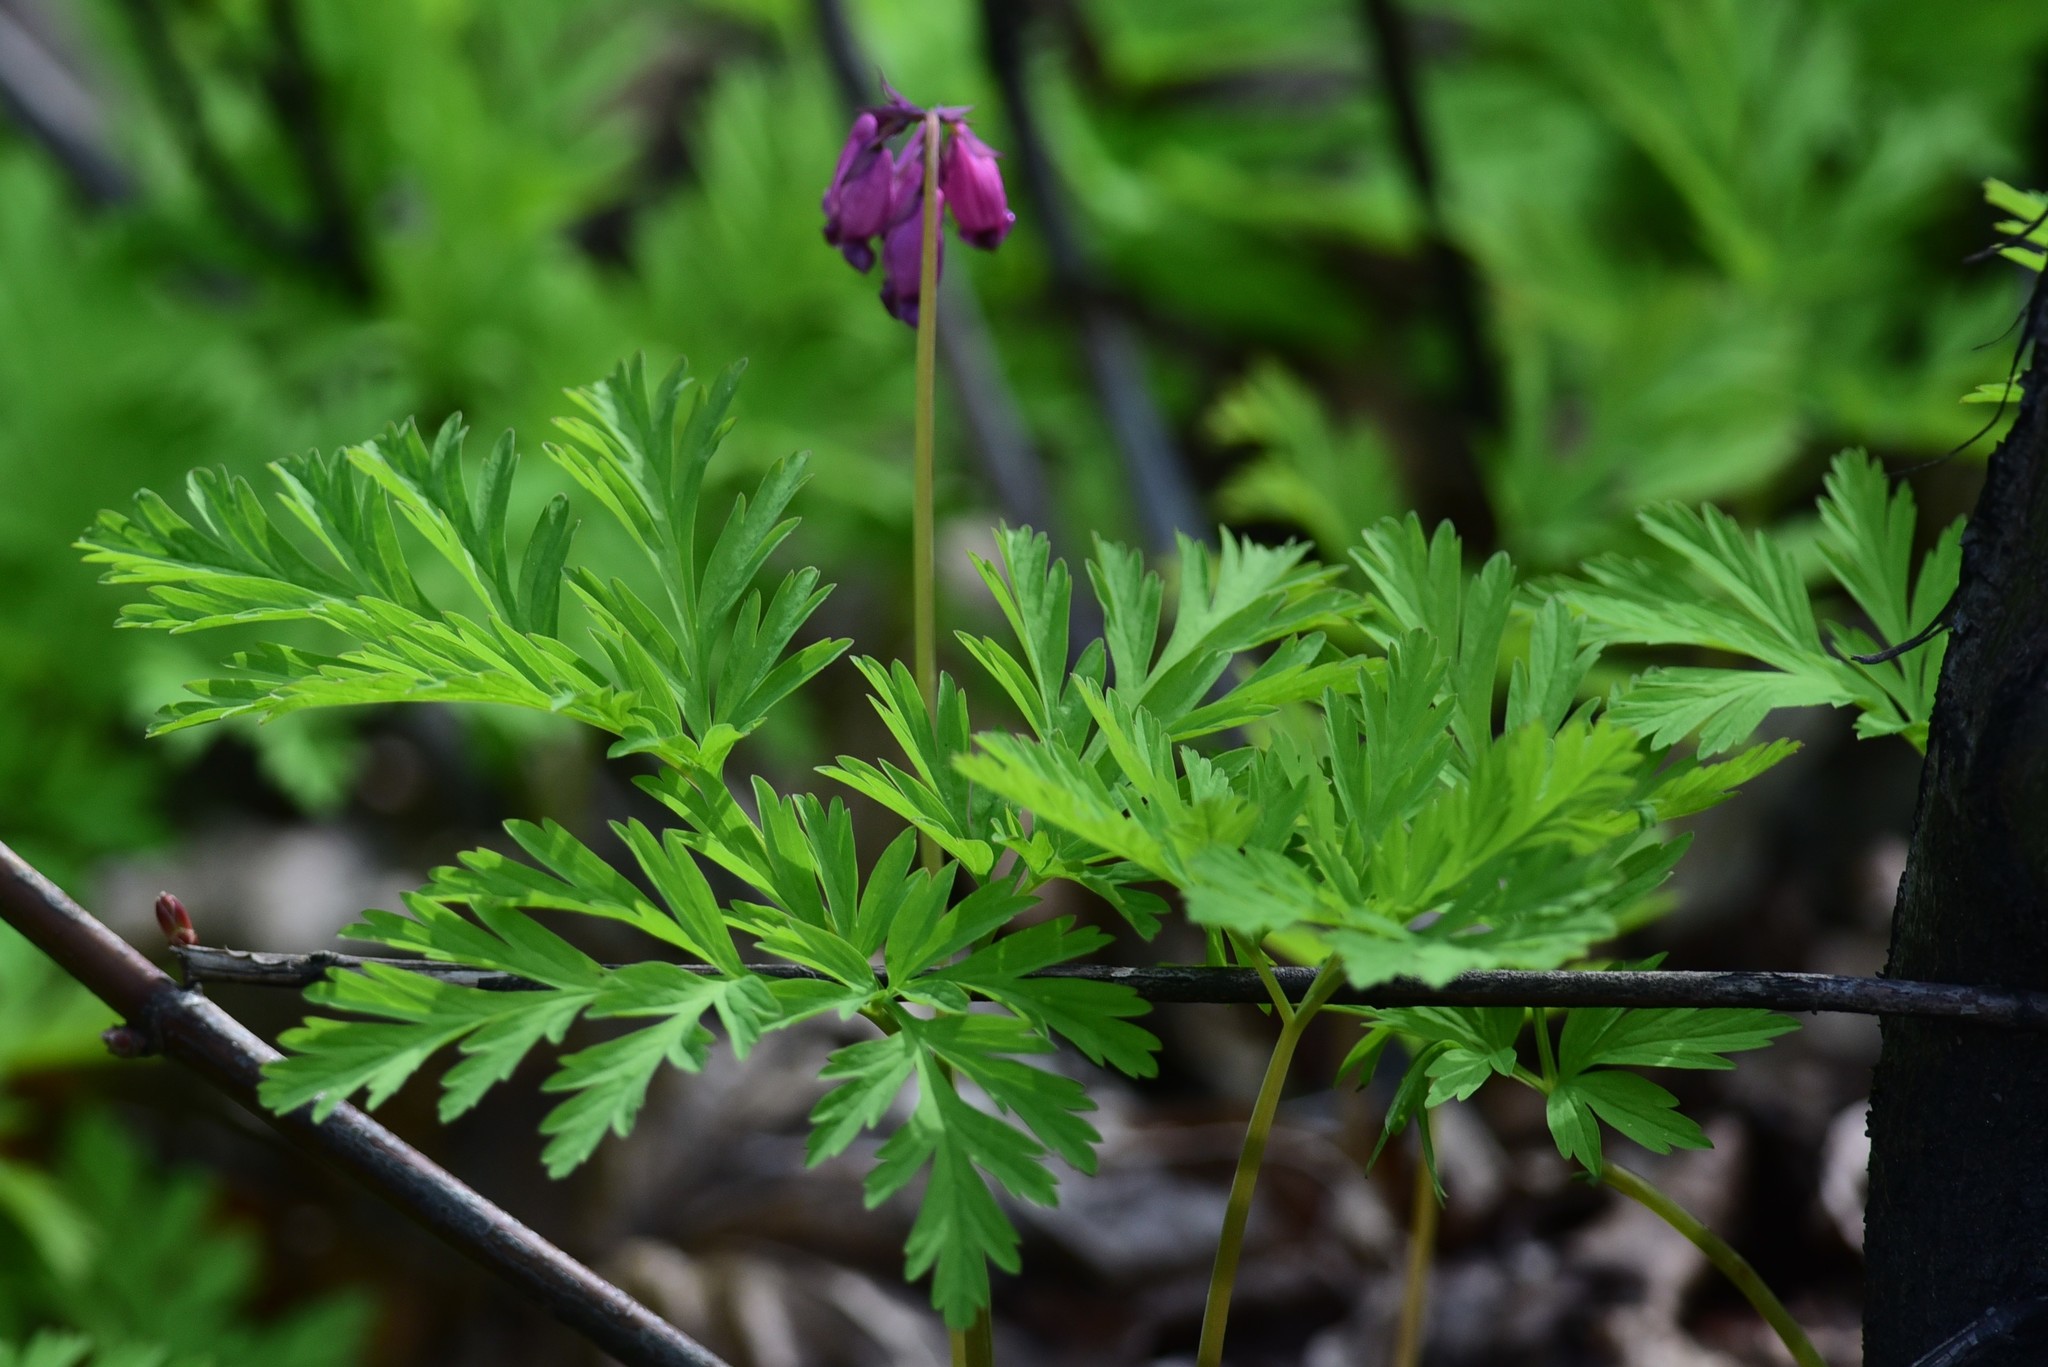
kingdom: Plantae
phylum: Tracheophyta
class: Magnoliopsida
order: Ranunculales
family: Papaveraceae
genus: Dicentra
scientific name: Dicentra formosa
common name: Bleeding-heart
